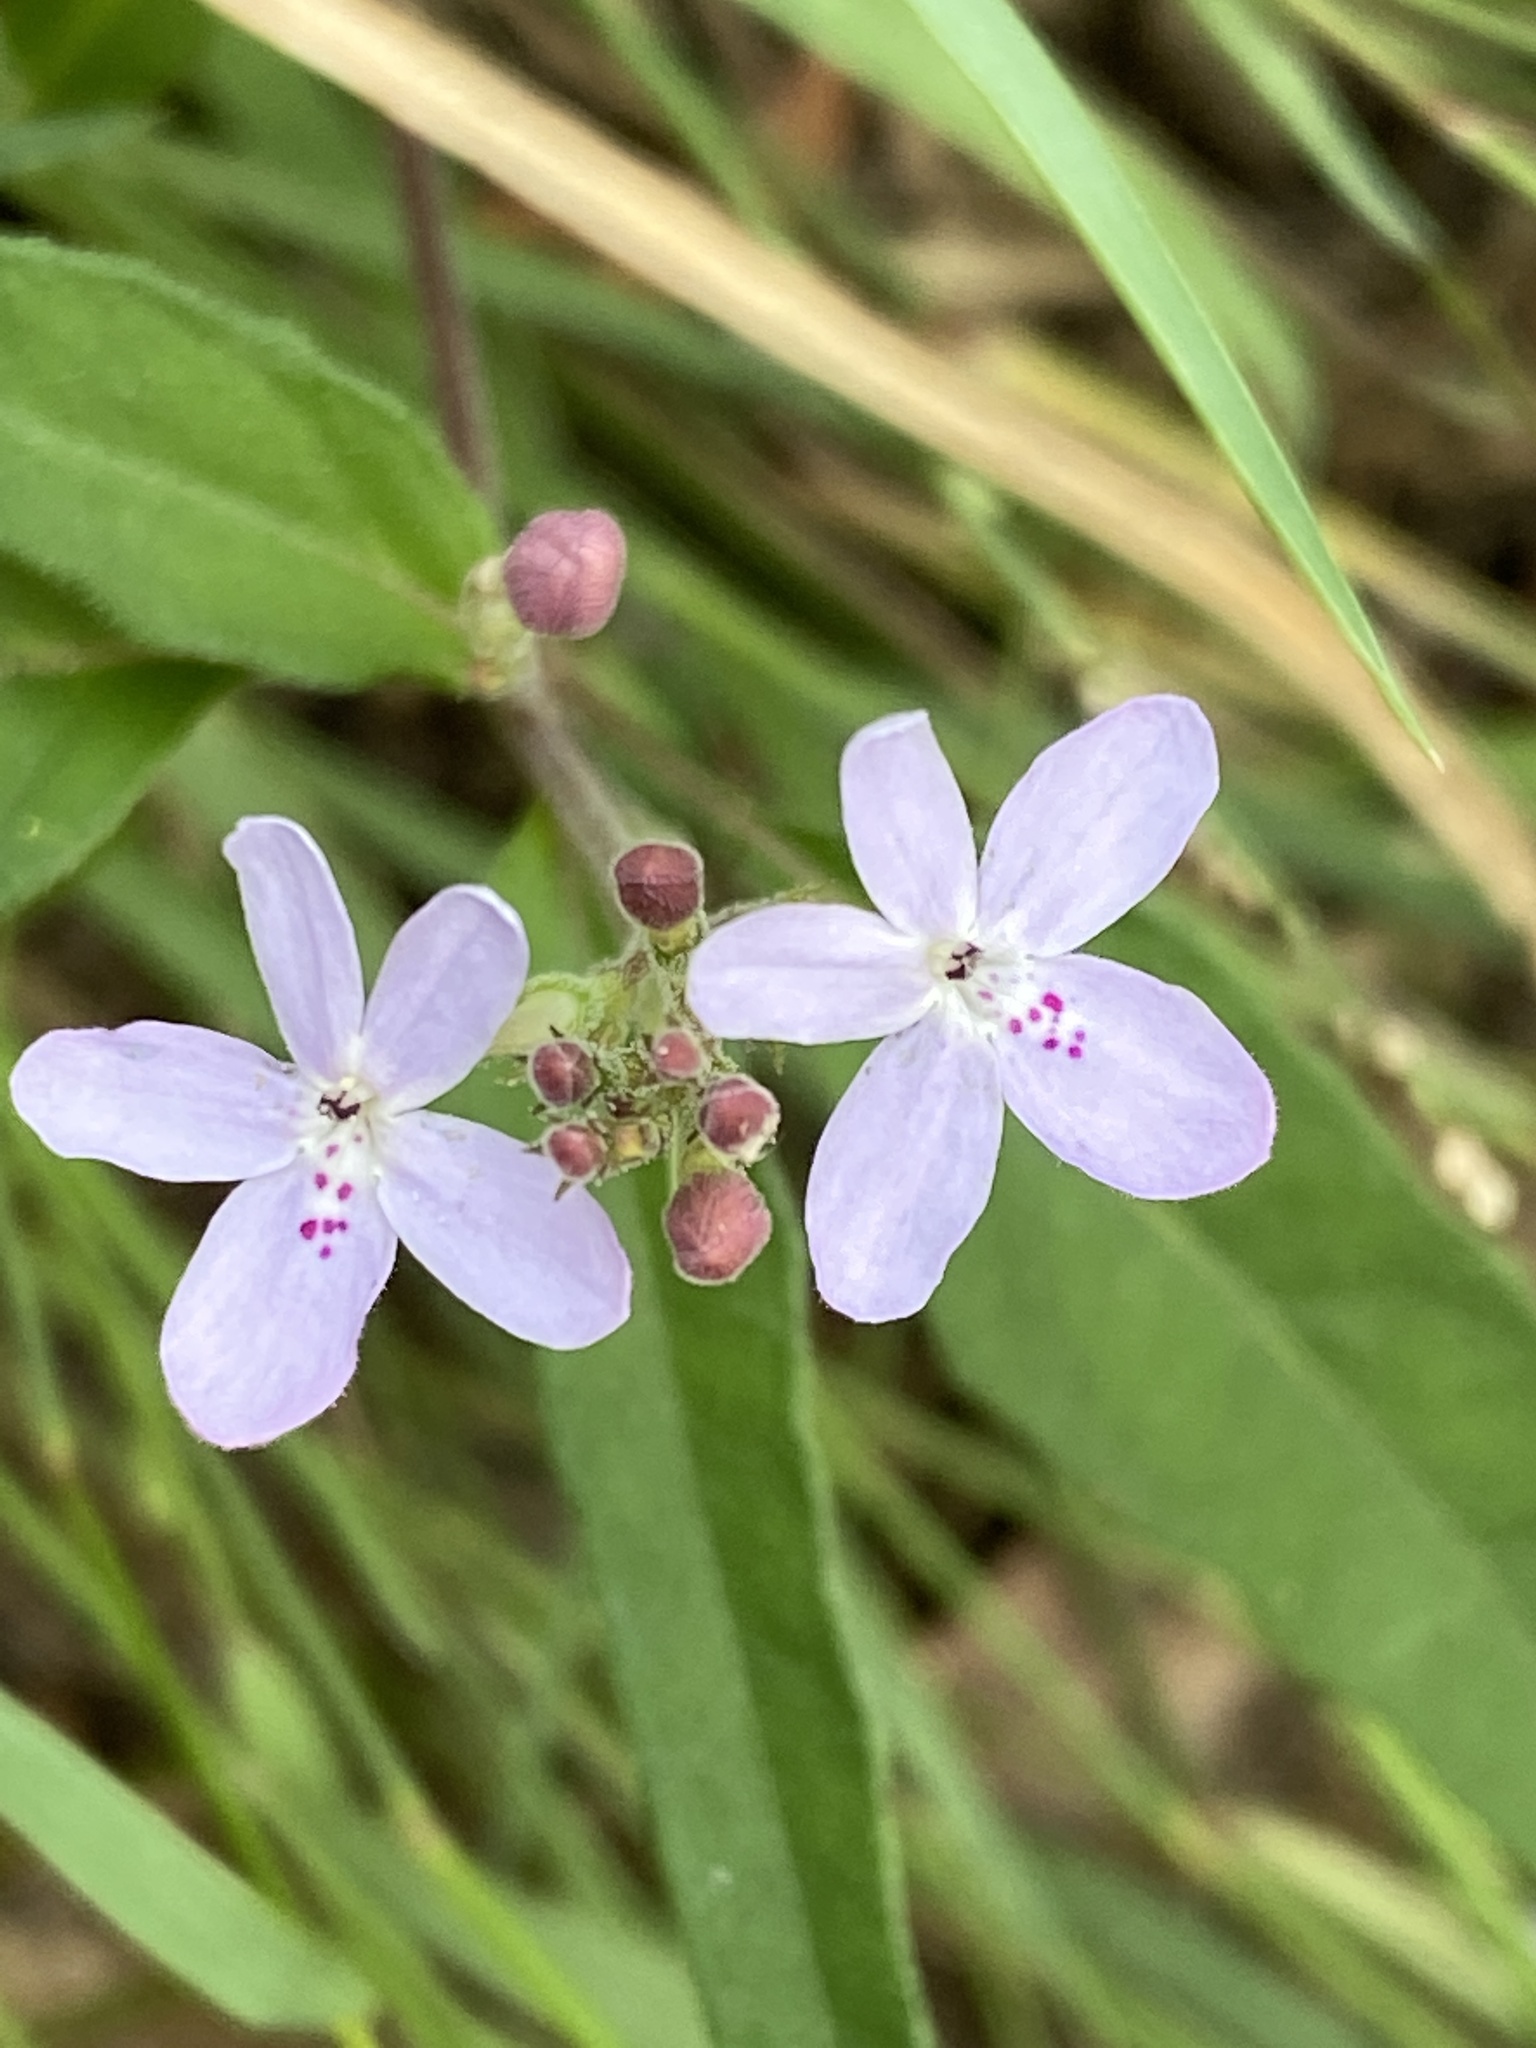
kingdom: Plantae
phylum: Tracheophyta
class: Magnoliopsida
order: Lamiales
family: Acanthaceae
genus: Pseuderanthemum
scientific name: Pseuderanthemum variabile
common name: Night and afternoon
